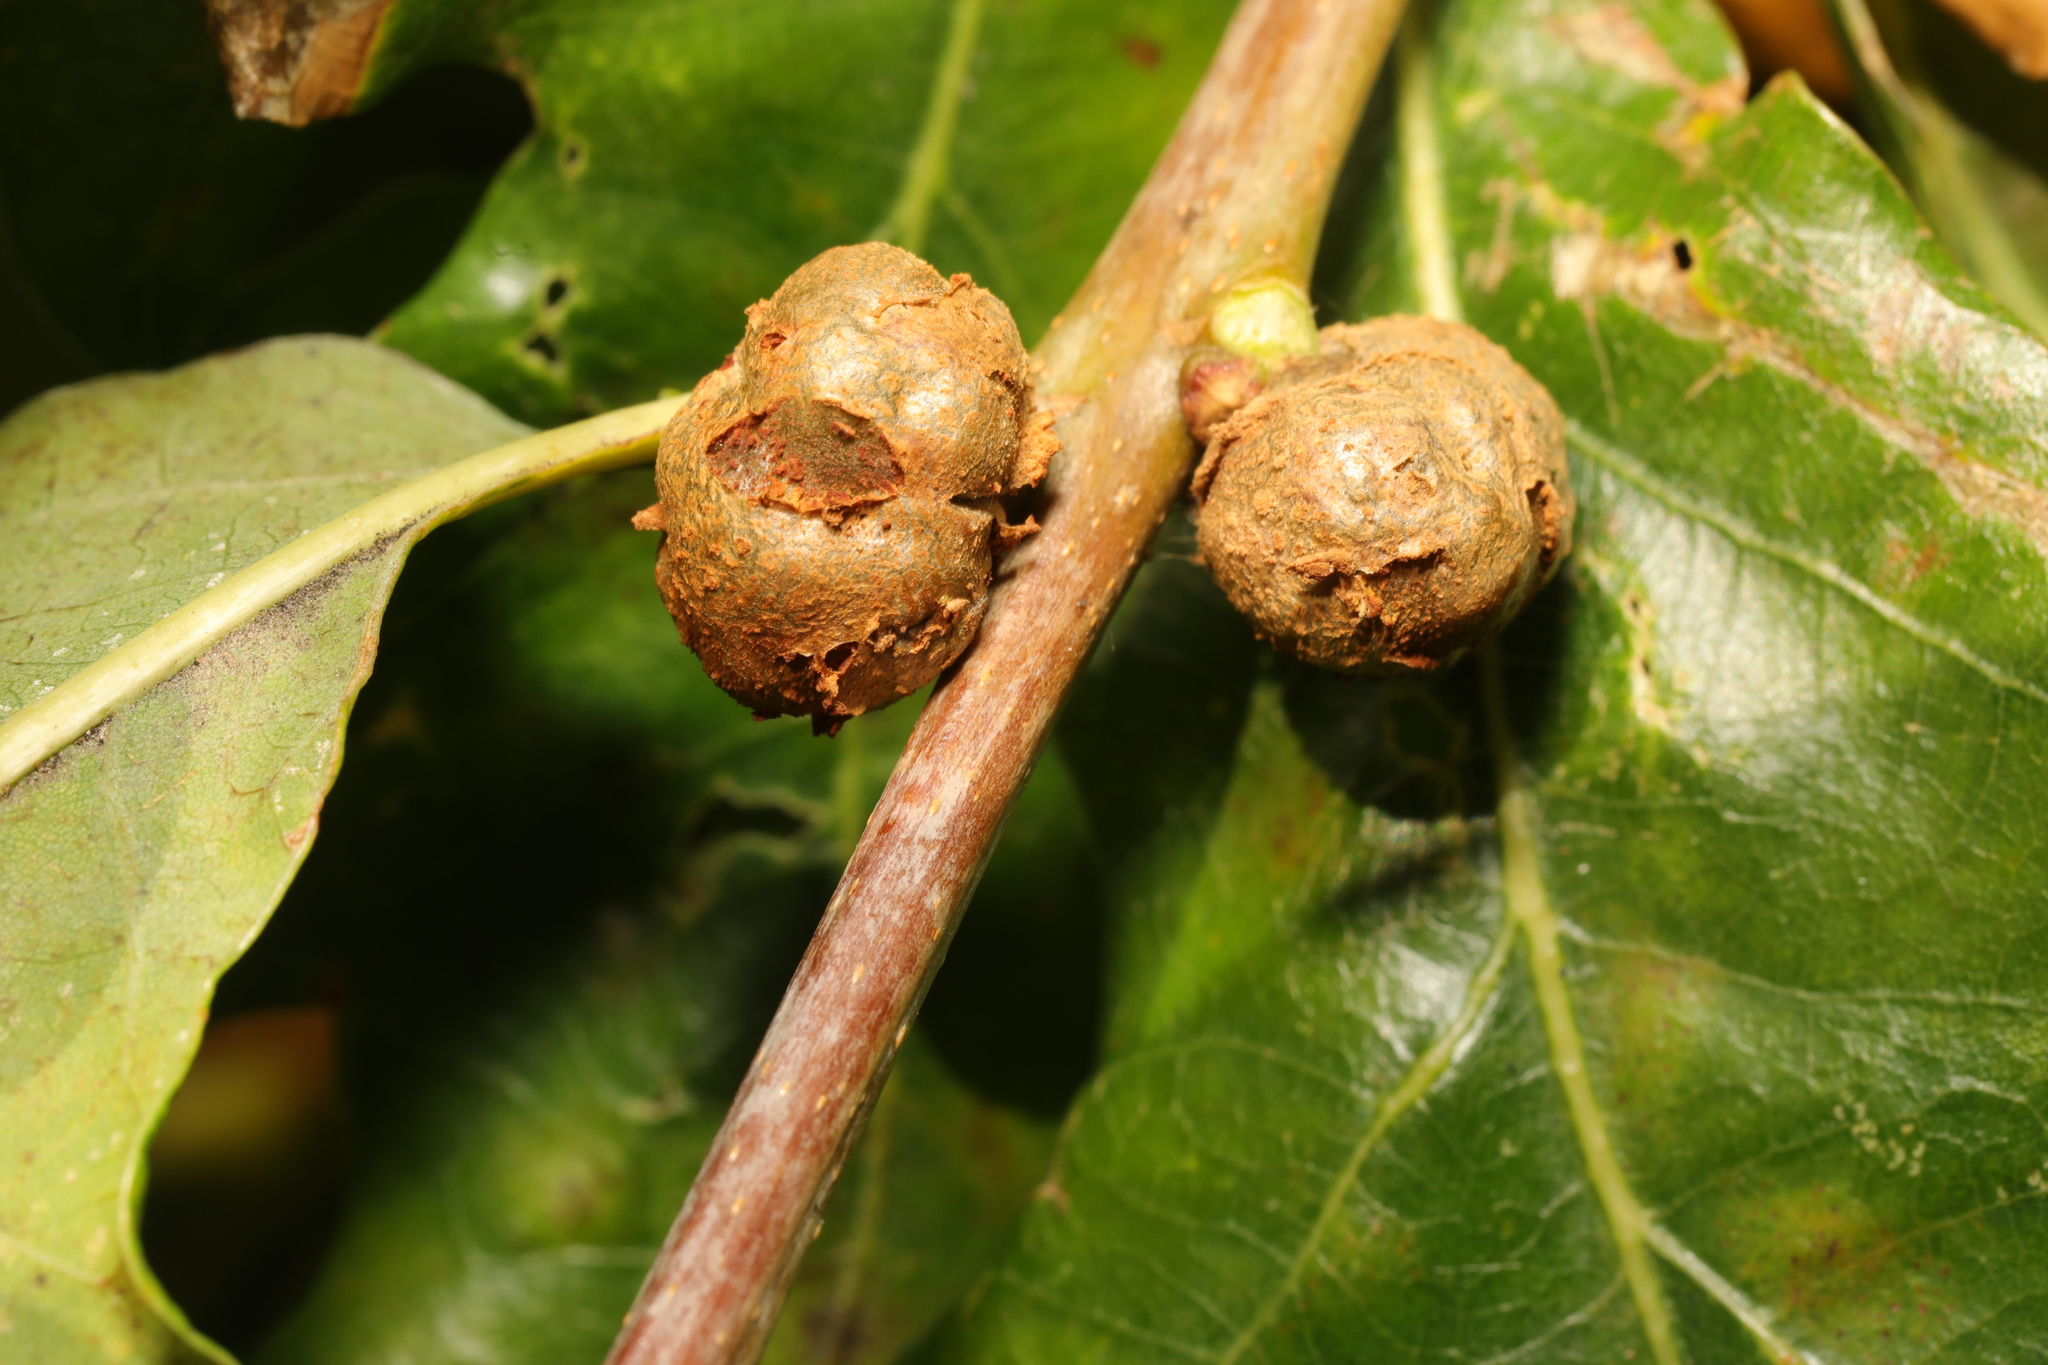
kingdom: Animalia
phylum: Arthropoda
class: Insecta
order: Hymenoptera
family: Cynipidae
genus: Andricus
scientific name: Andricus lignicolus
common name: Cola-nut gall
